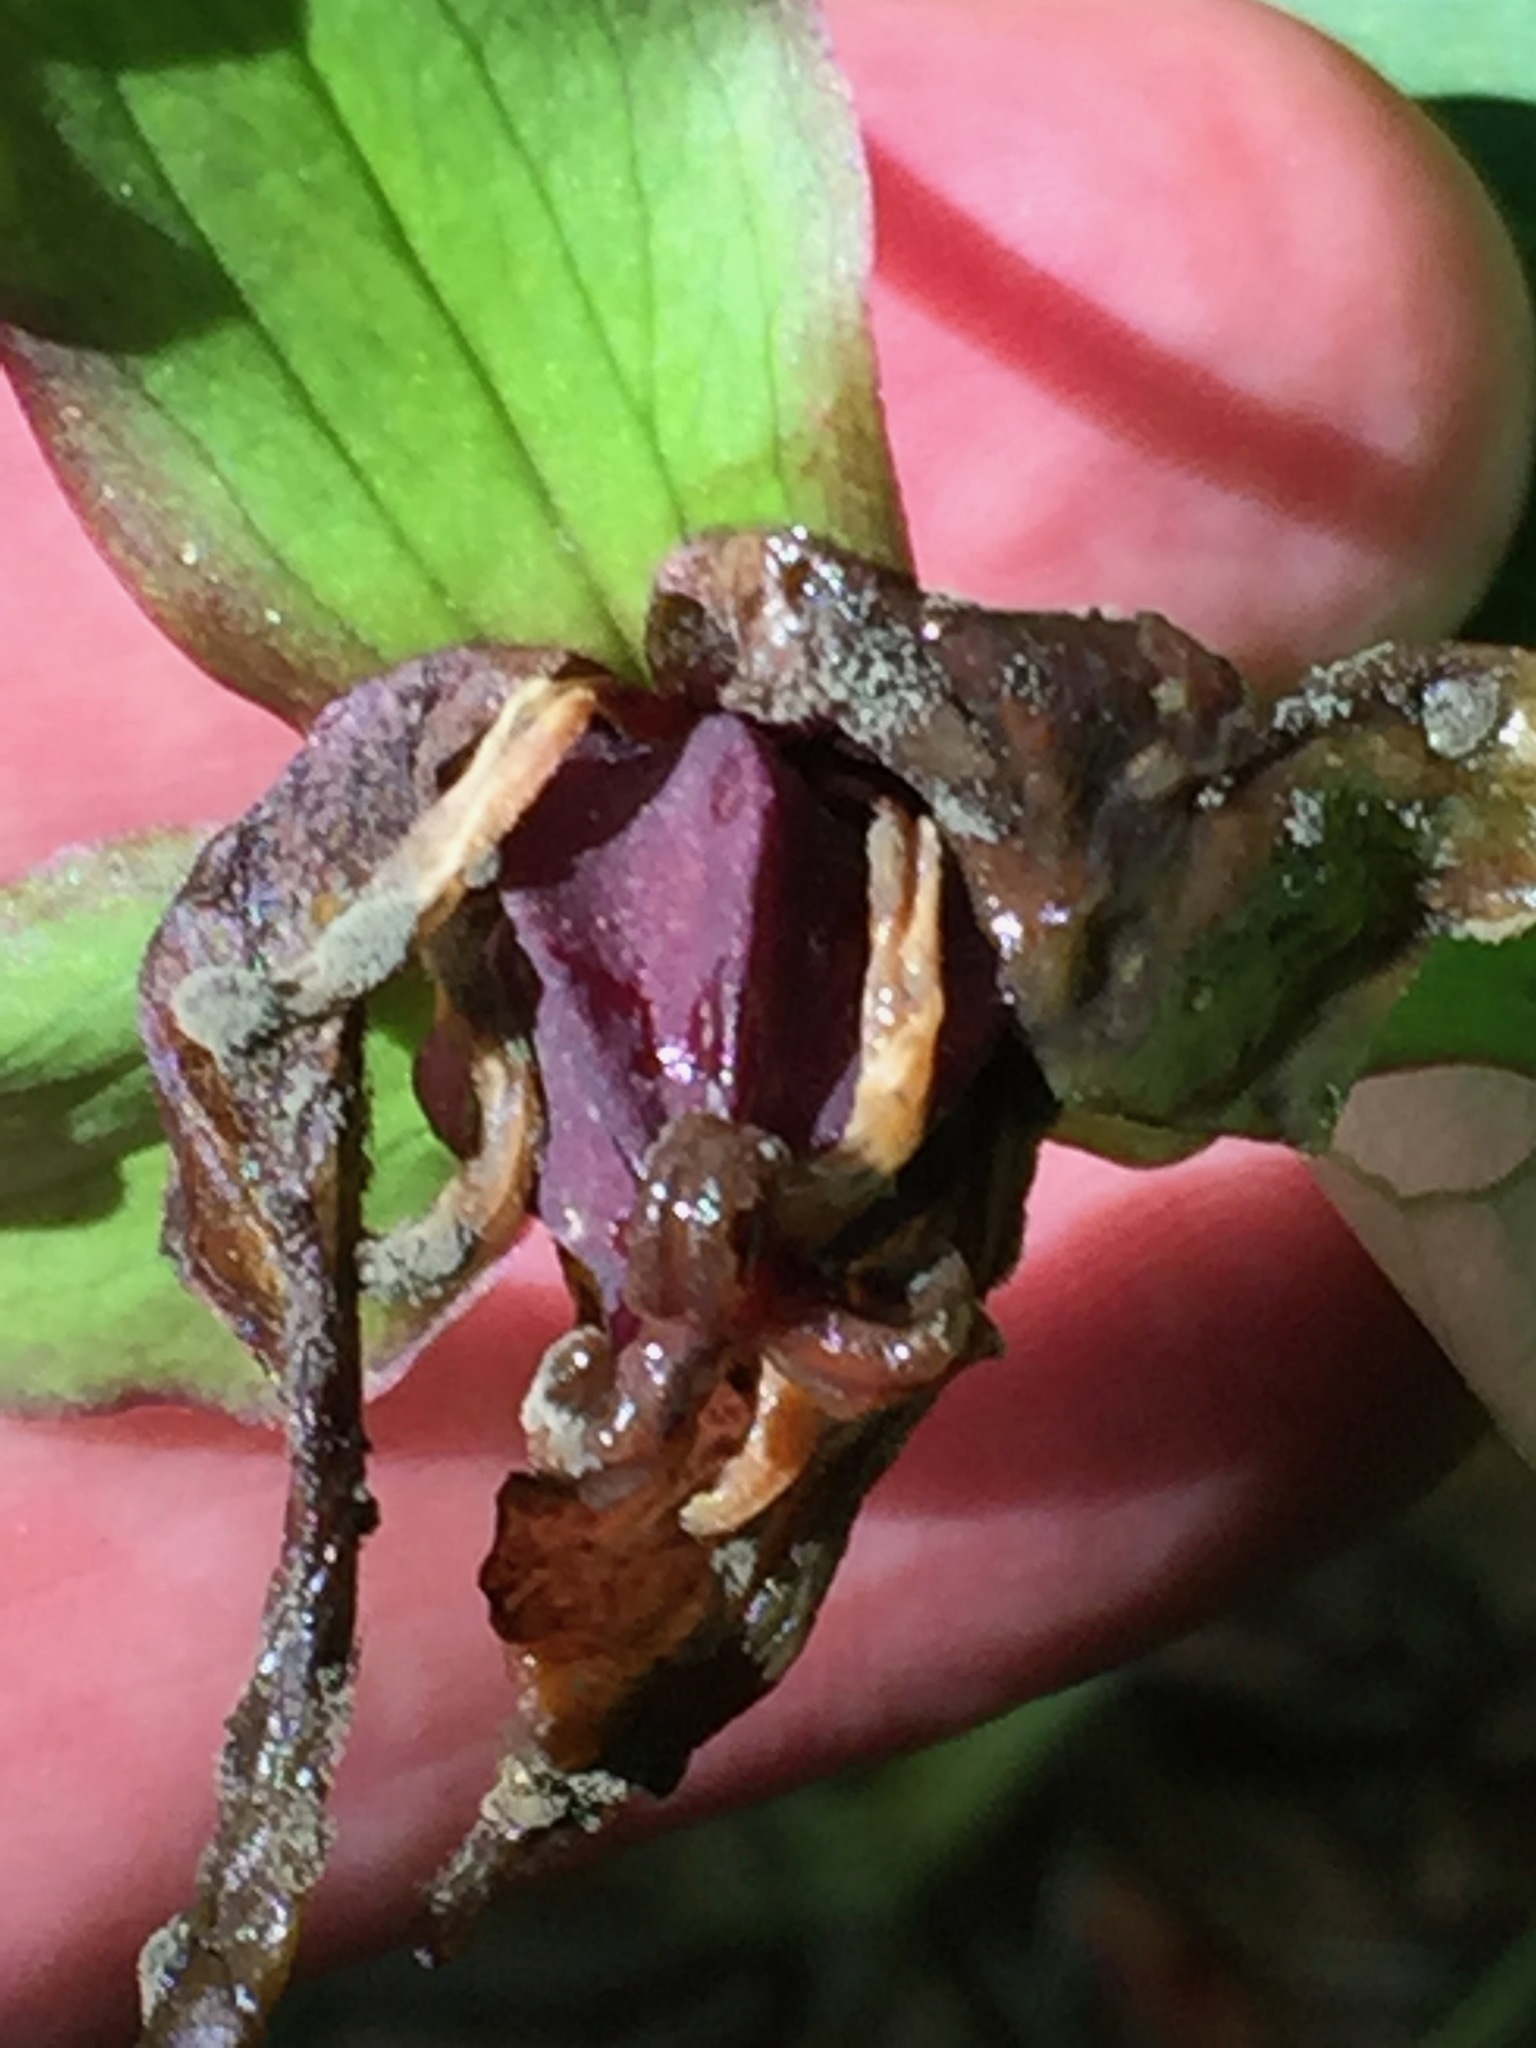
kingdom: Plantae
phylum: Tracheophyta
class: Liliopsida
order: Liliales
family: Melanthiaceae
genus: Trillium
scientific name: Trillium erectum
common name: Purple trillium
